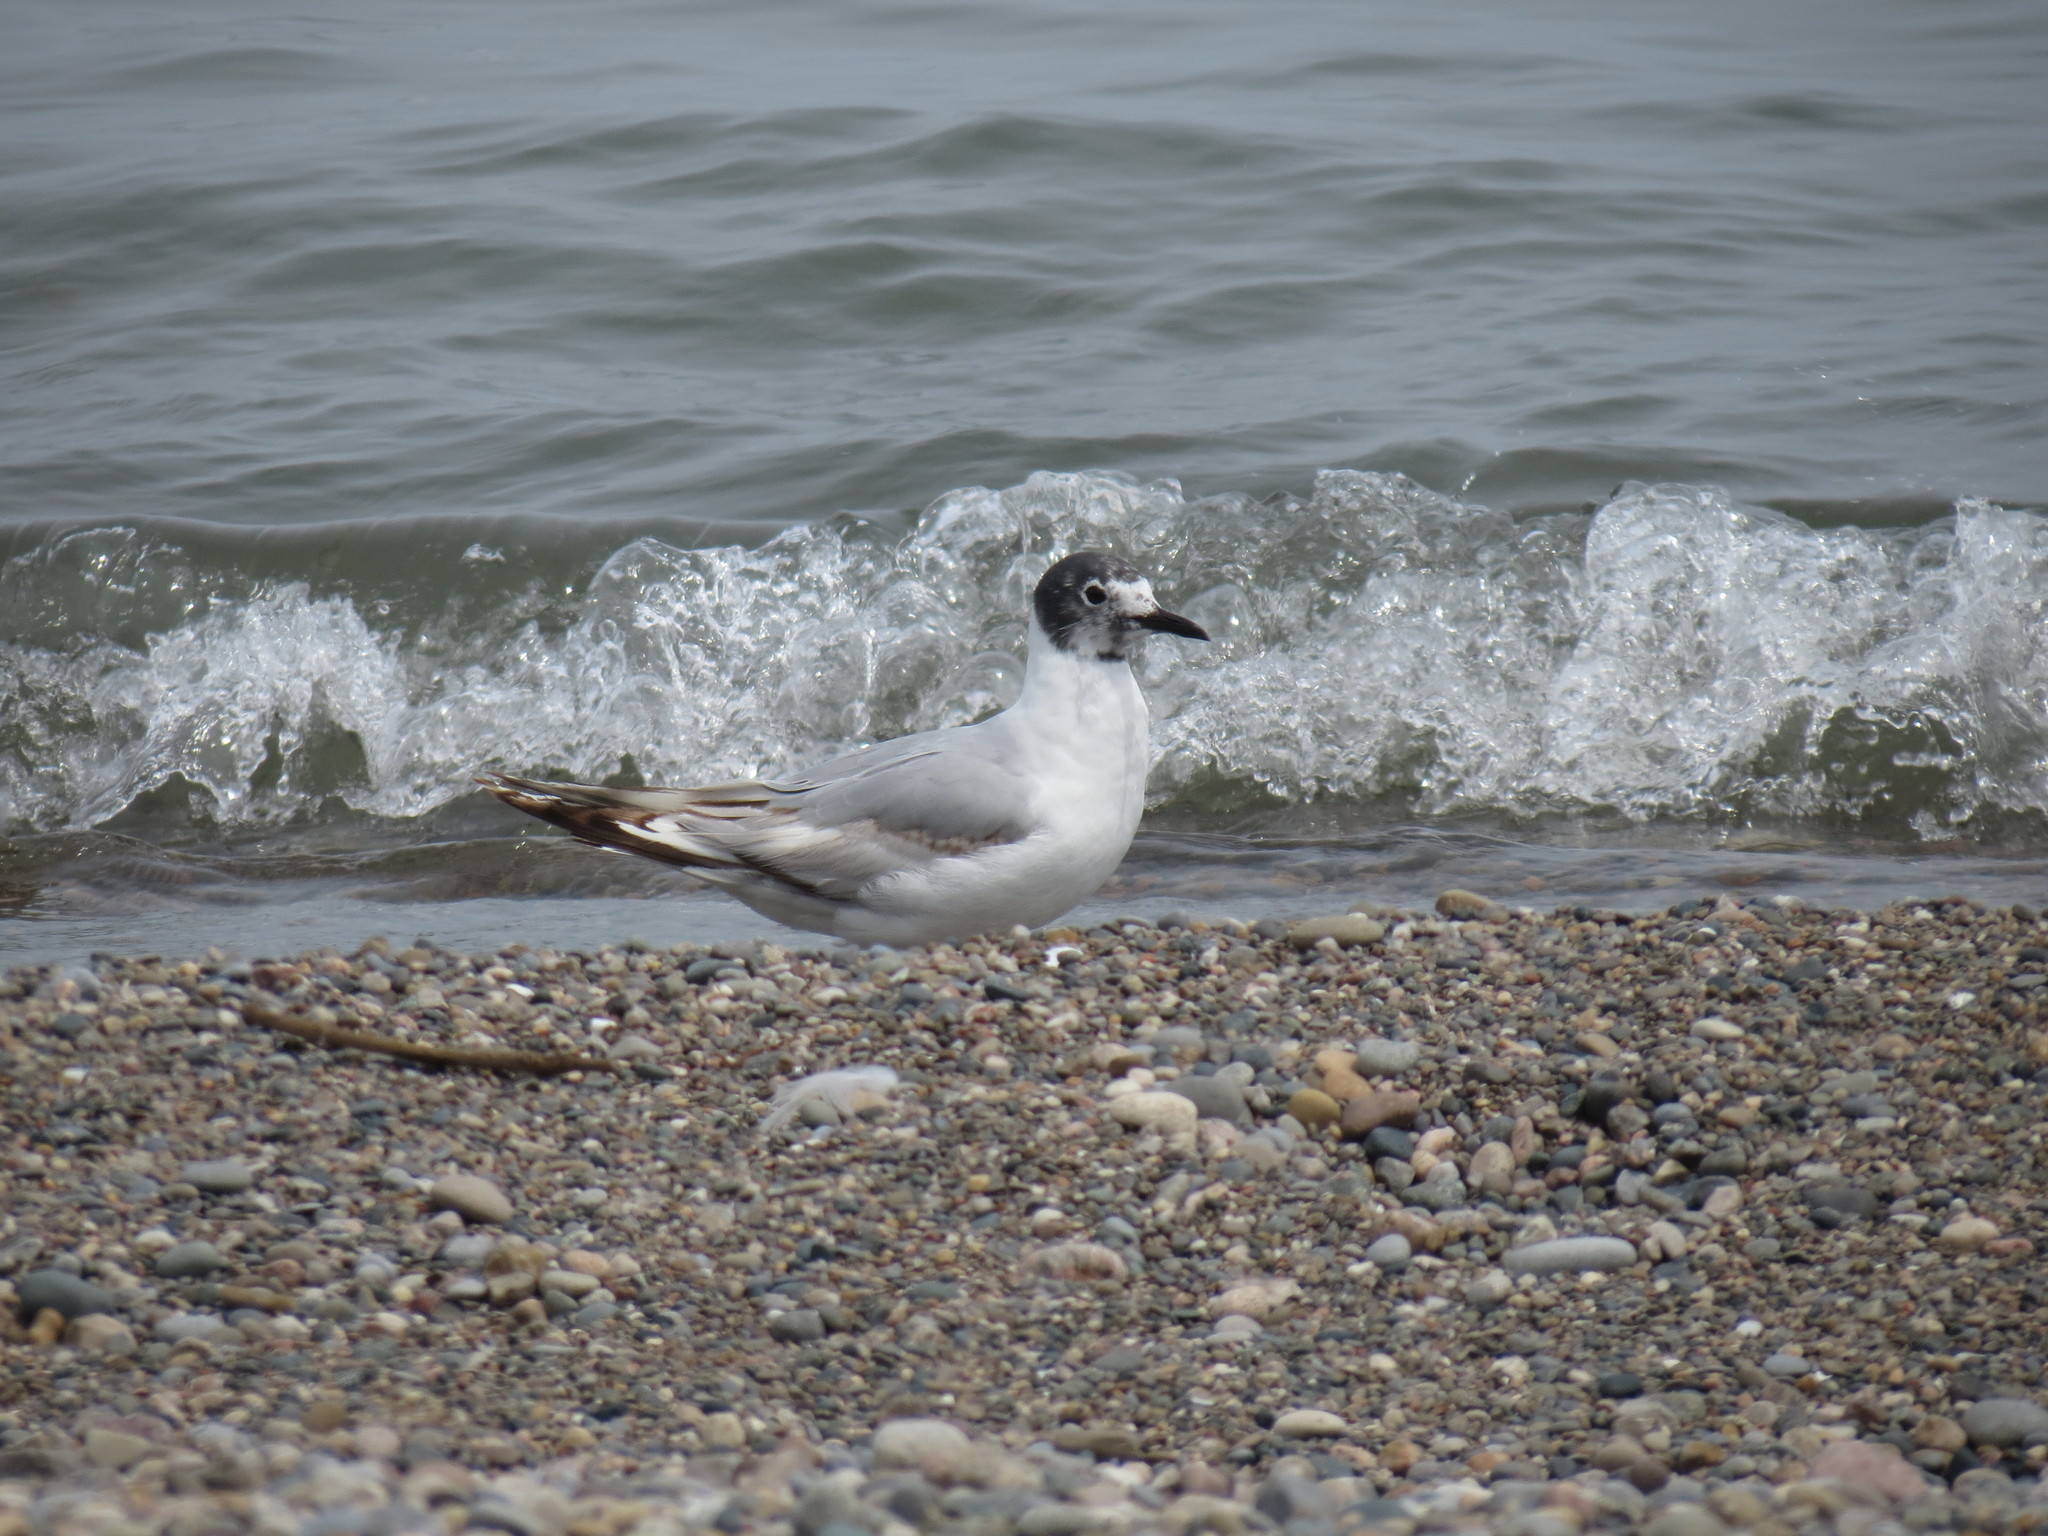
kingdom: Animalia
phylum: Chordata
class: Aves
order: Charadriiformes
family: Laridae
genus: Chroicocephalus
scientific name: Chroicocephalus philadelphia
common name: Bonaparte's gull
